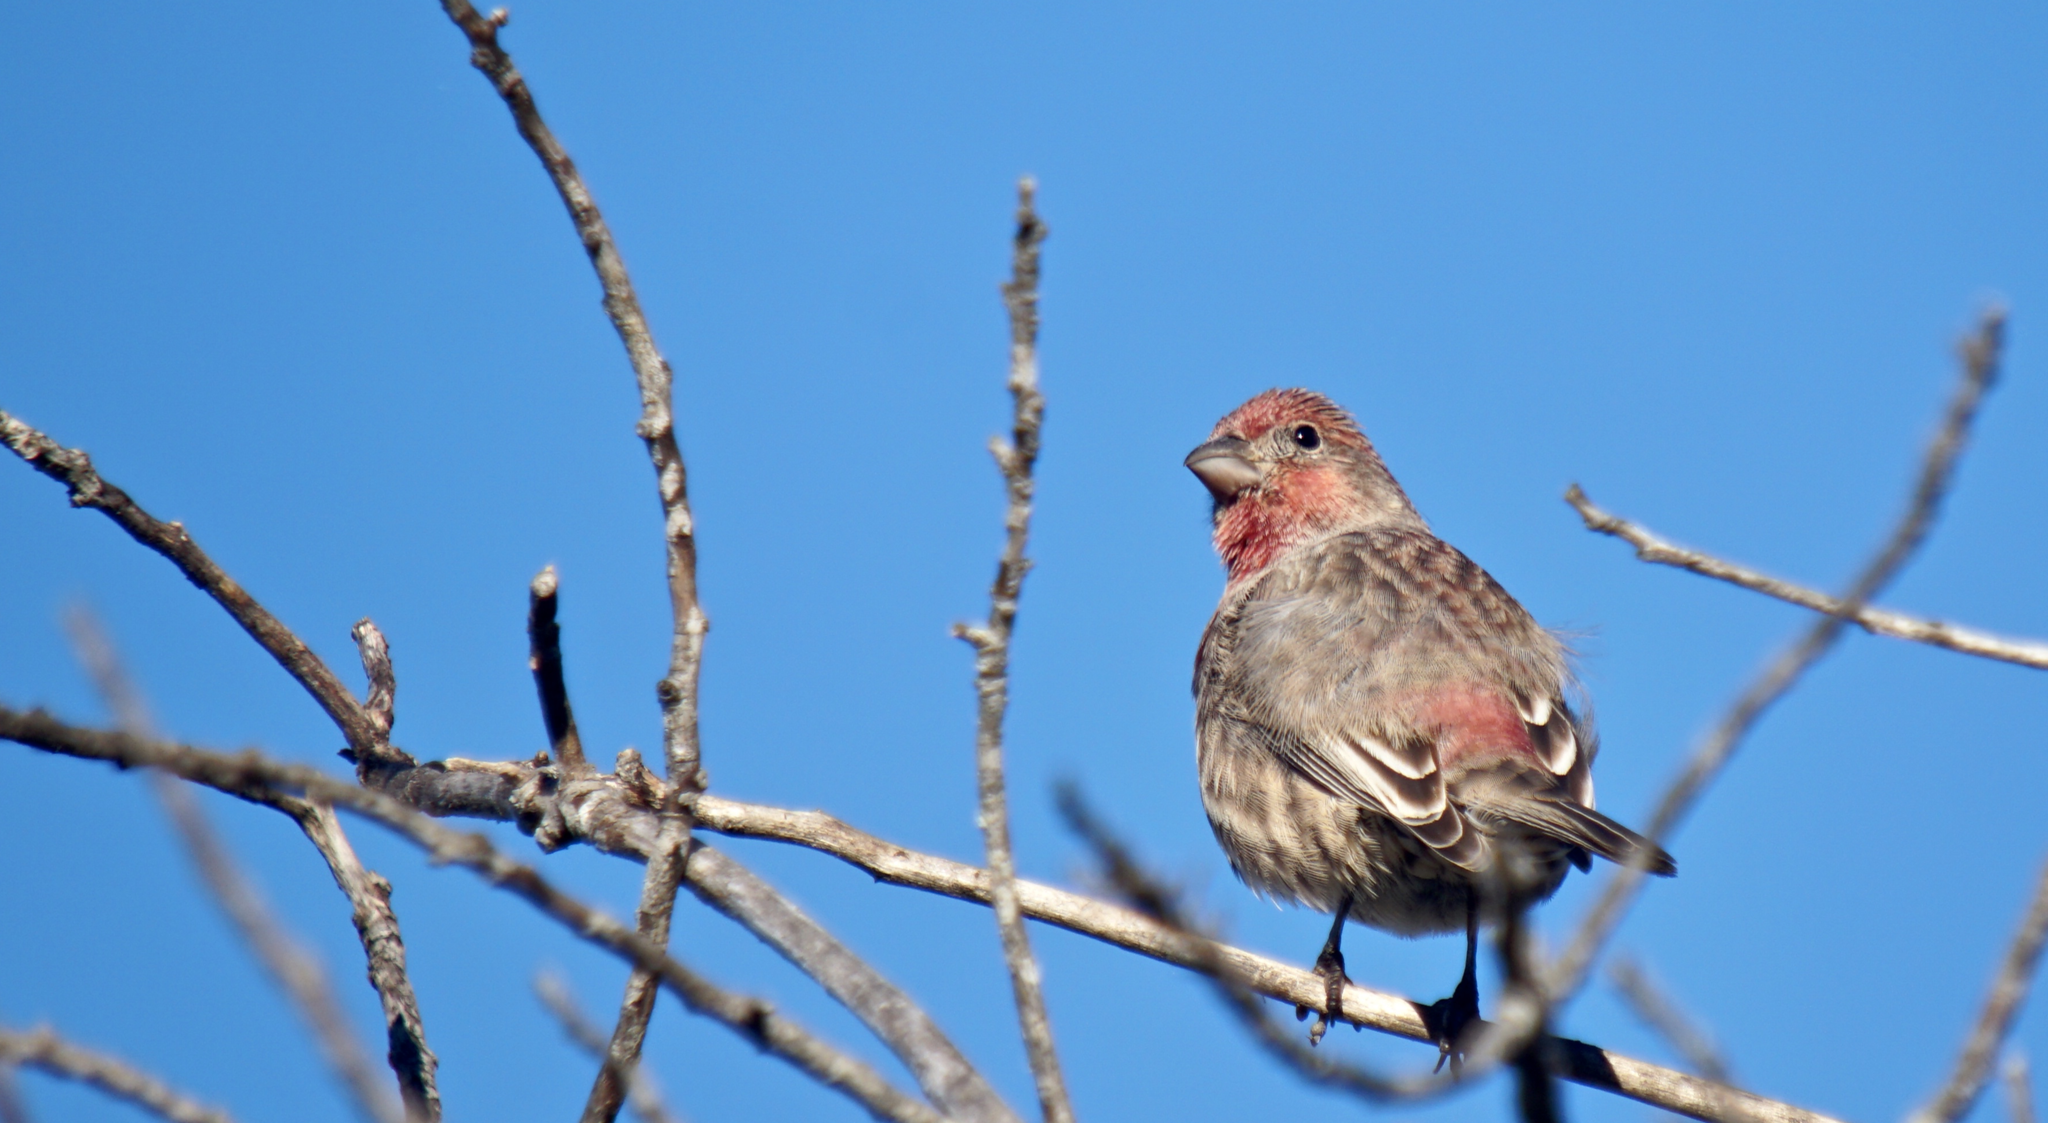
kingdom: Animalia
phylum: Chordata
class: Aves
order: Passeriformes
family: Fringillidae
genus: Haemorhous
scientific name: Haemorhous mexicanus
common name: House finch
